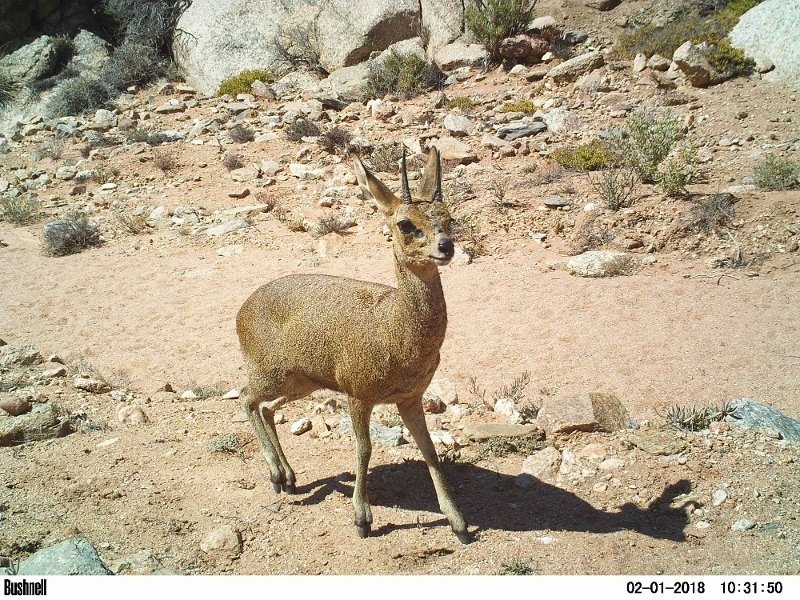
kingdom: Animalia
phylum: Chordata
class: Mammalia
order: Artiodactyla
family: Bovidae
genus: Oreotragus
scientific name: Oreotragus oreotragus
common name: Klipspringer
